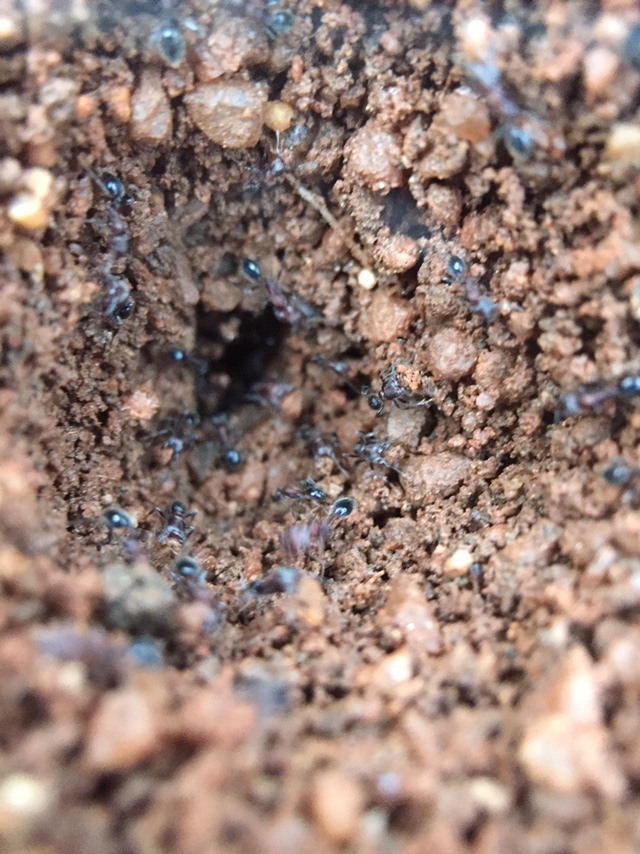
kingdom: Animalia
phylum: Arthropoda
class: Insecta
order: Hymenoptera
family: Formicidae
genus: Trichomyrmex
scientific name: Trichomyrmex
